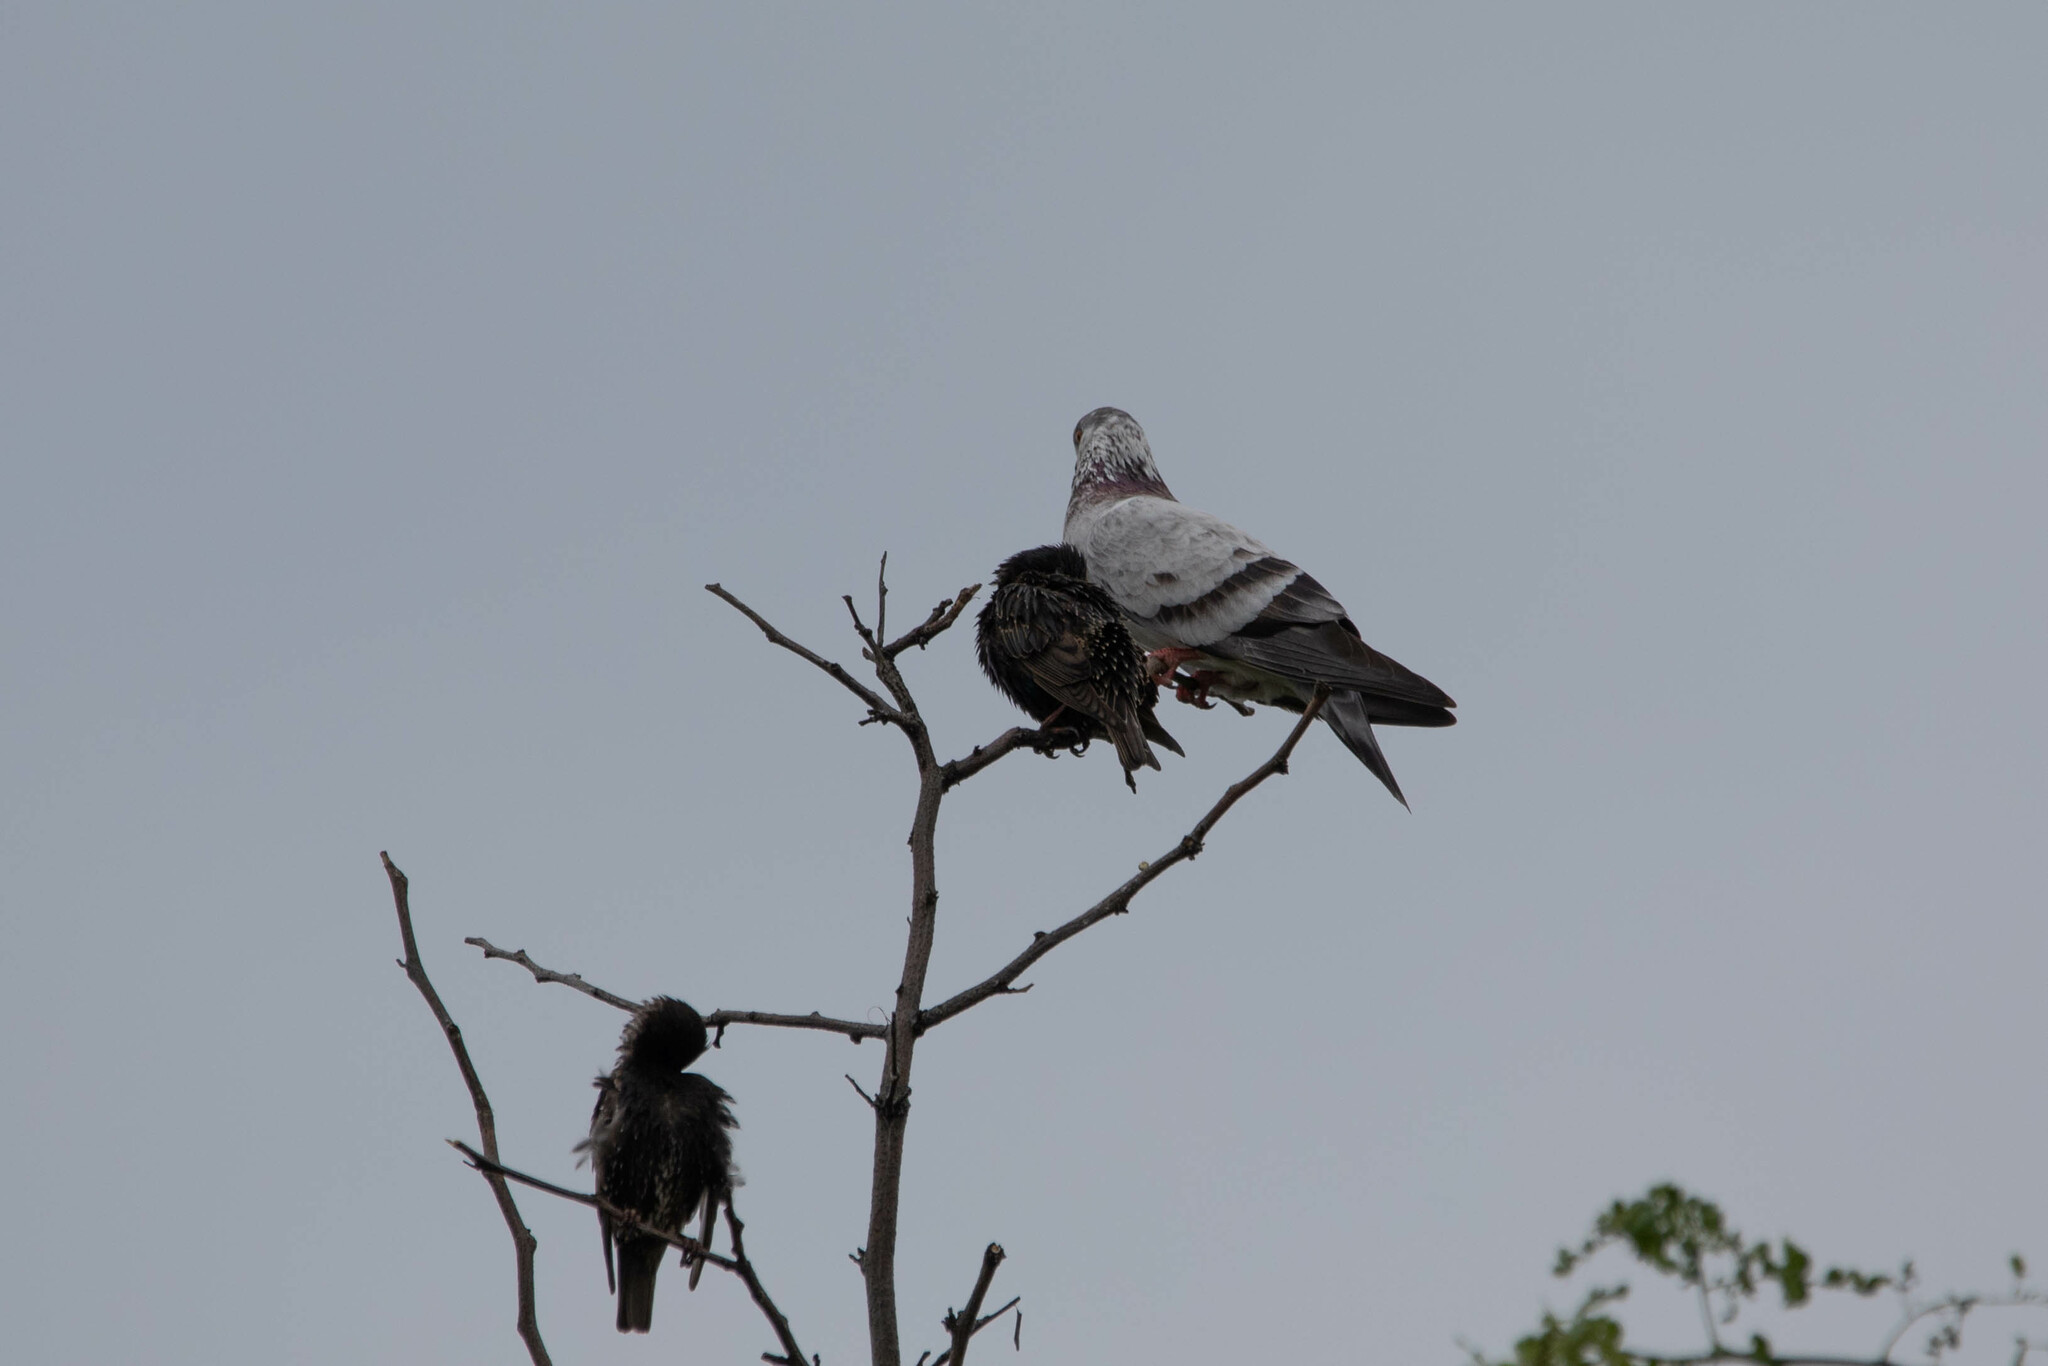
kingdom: Animalia
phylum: Chordata
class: Aves
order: Passeriformes
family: Sturnidae
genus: Sturnus
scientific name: Sturnus vulgaris
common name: Common starling
